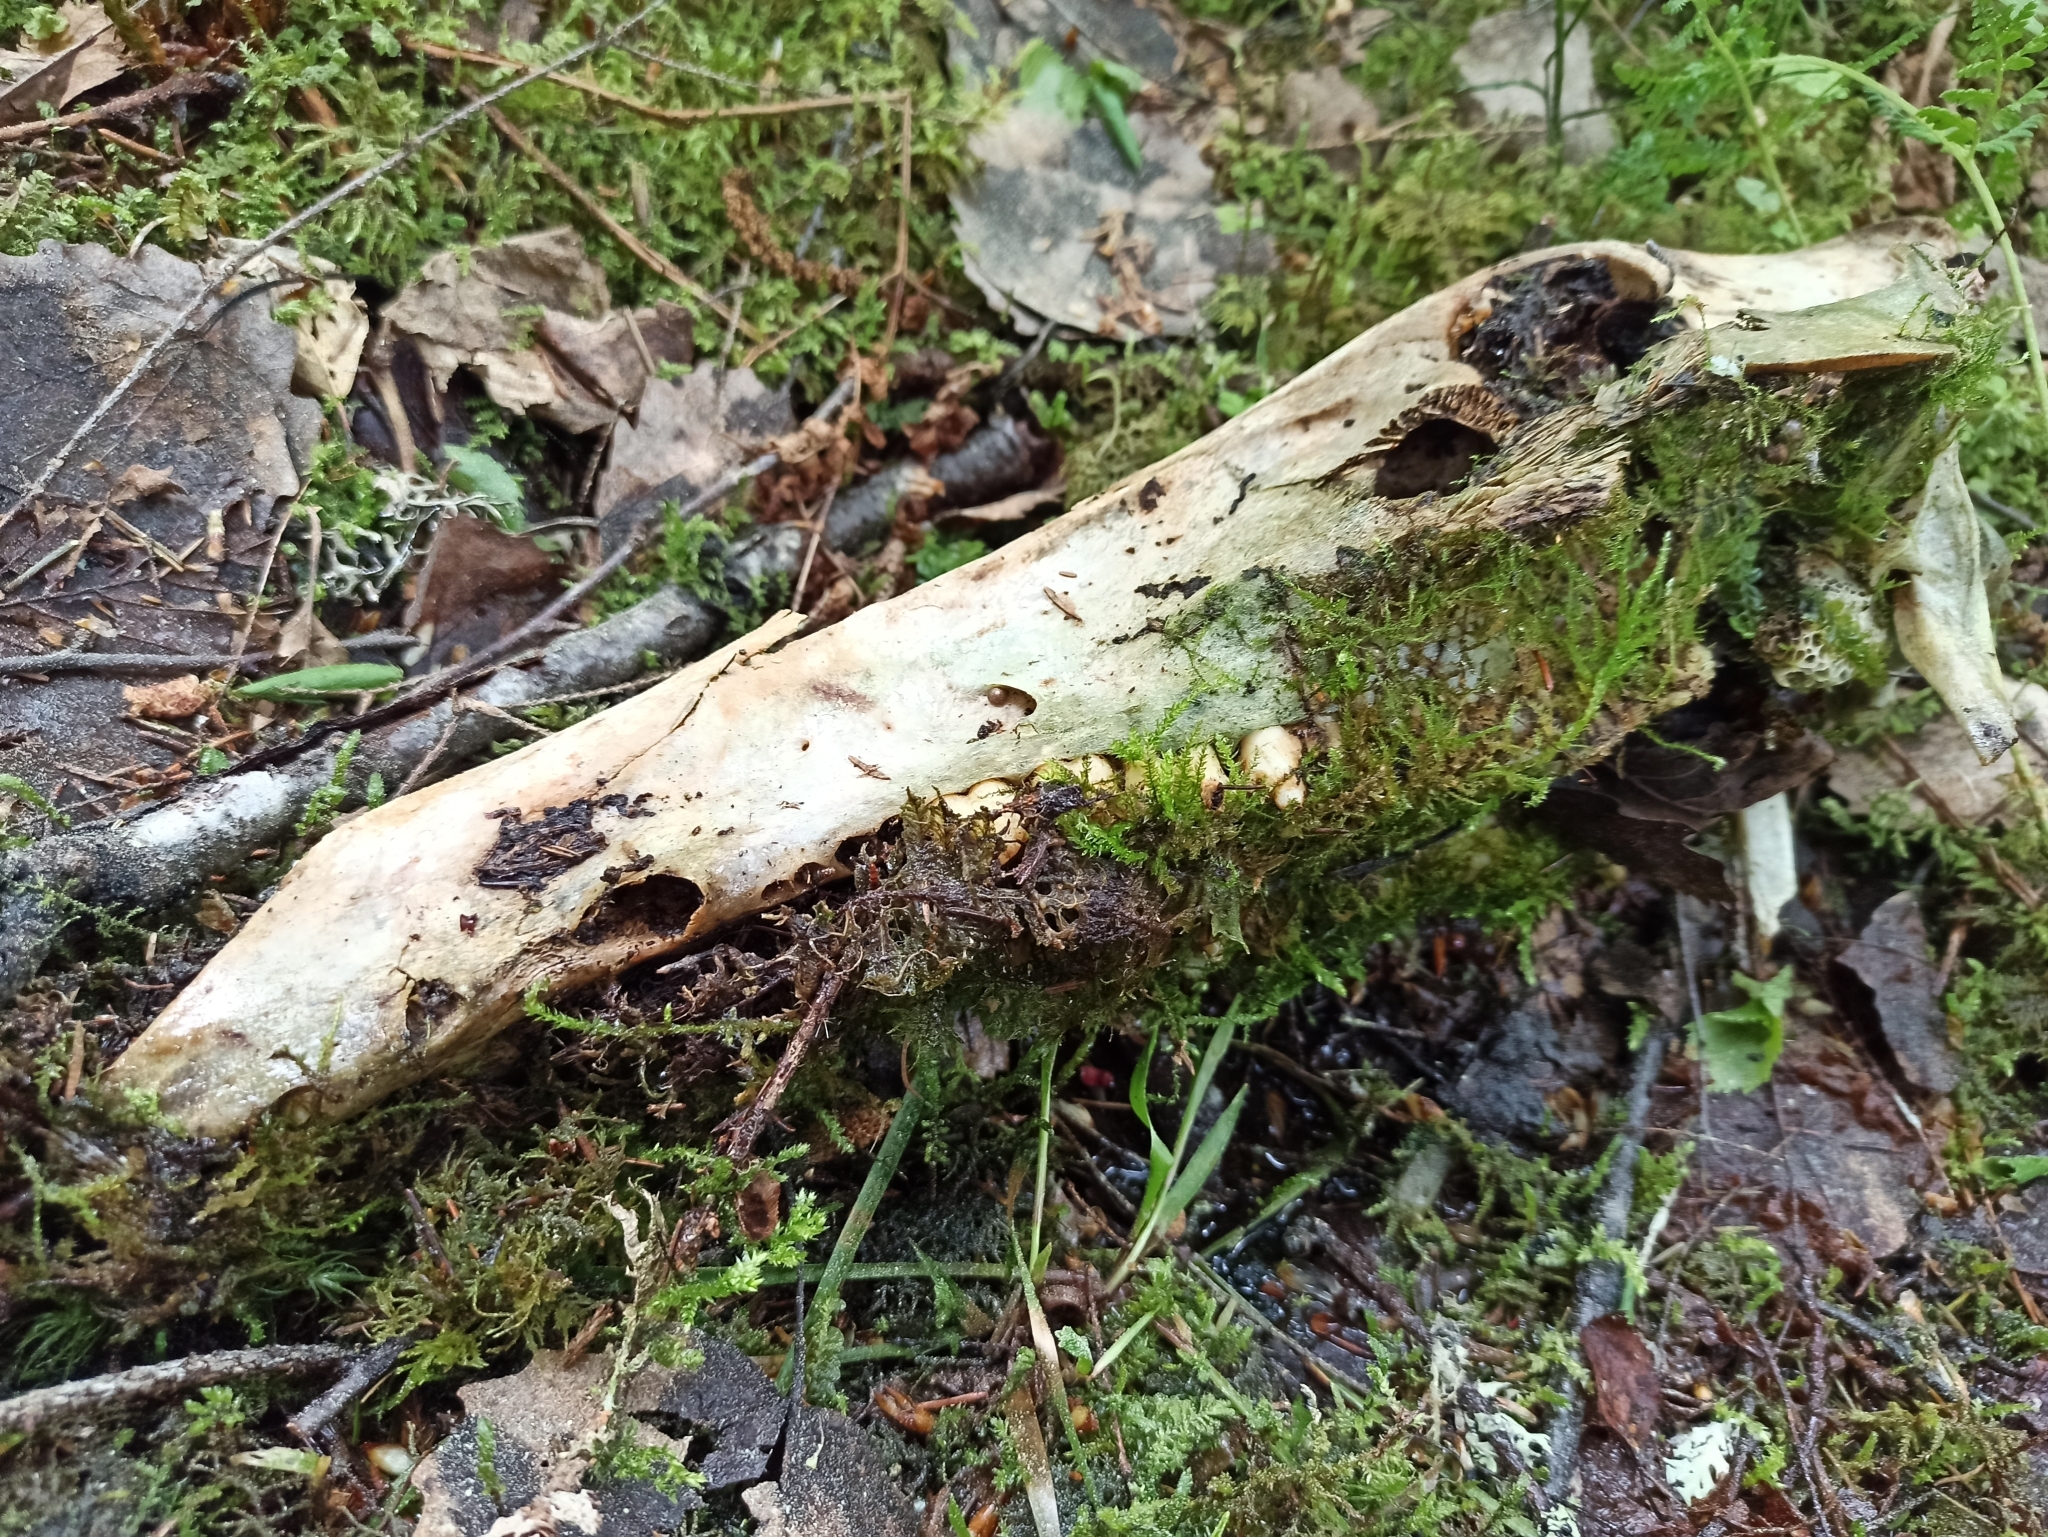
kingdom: Animalia
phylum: Chordata
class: Mammalia
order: Artiodactyla
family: Suidae
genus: Sus
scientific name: Sus scrofa
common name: Wild boar
